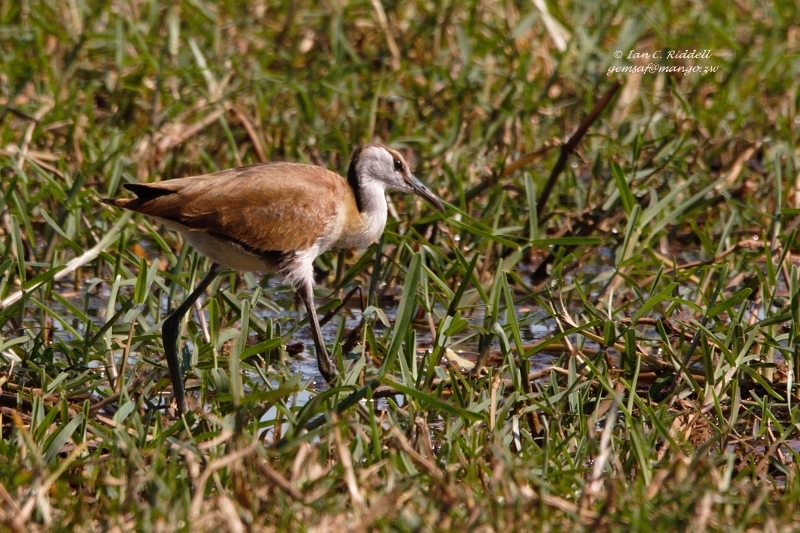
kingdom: Animalia
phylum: Chordata
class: Aves
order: Charadriiformes
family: Jacanidae
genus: Actophilornis
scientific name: Actophilornis africanus
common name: African jacana
